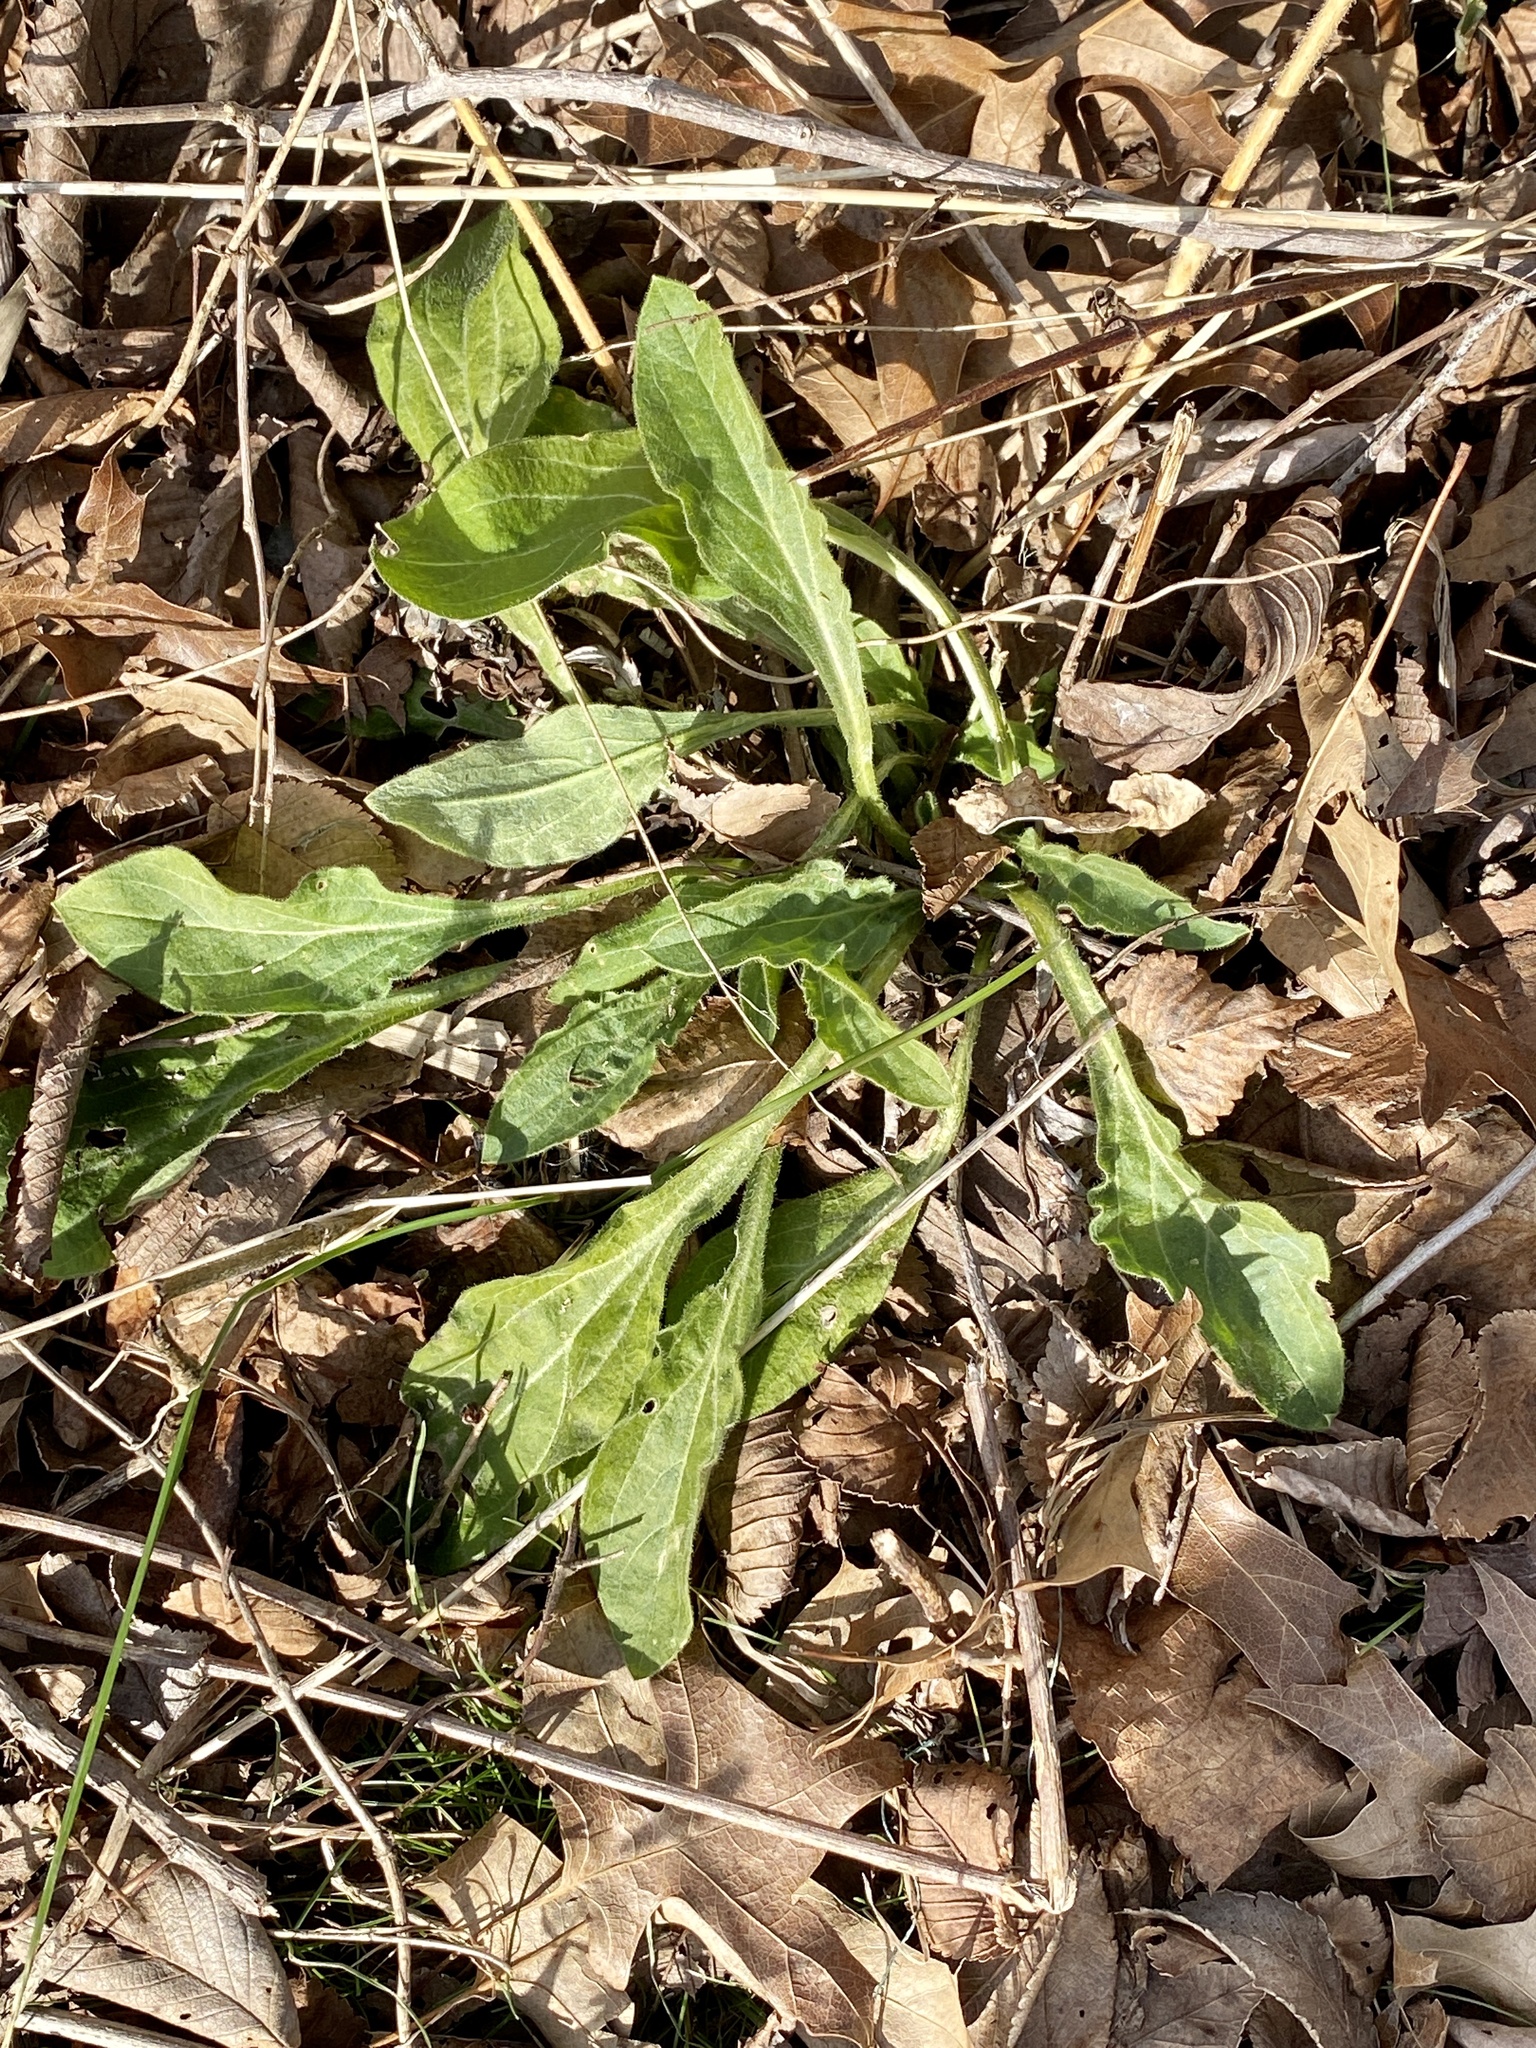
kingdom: Plantae
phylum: Tracheophyta
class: Magnoliopsida
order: Caryophyllales
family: Caryophyllaceae
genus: Silene
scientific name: Silene latifolia
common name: White campion
